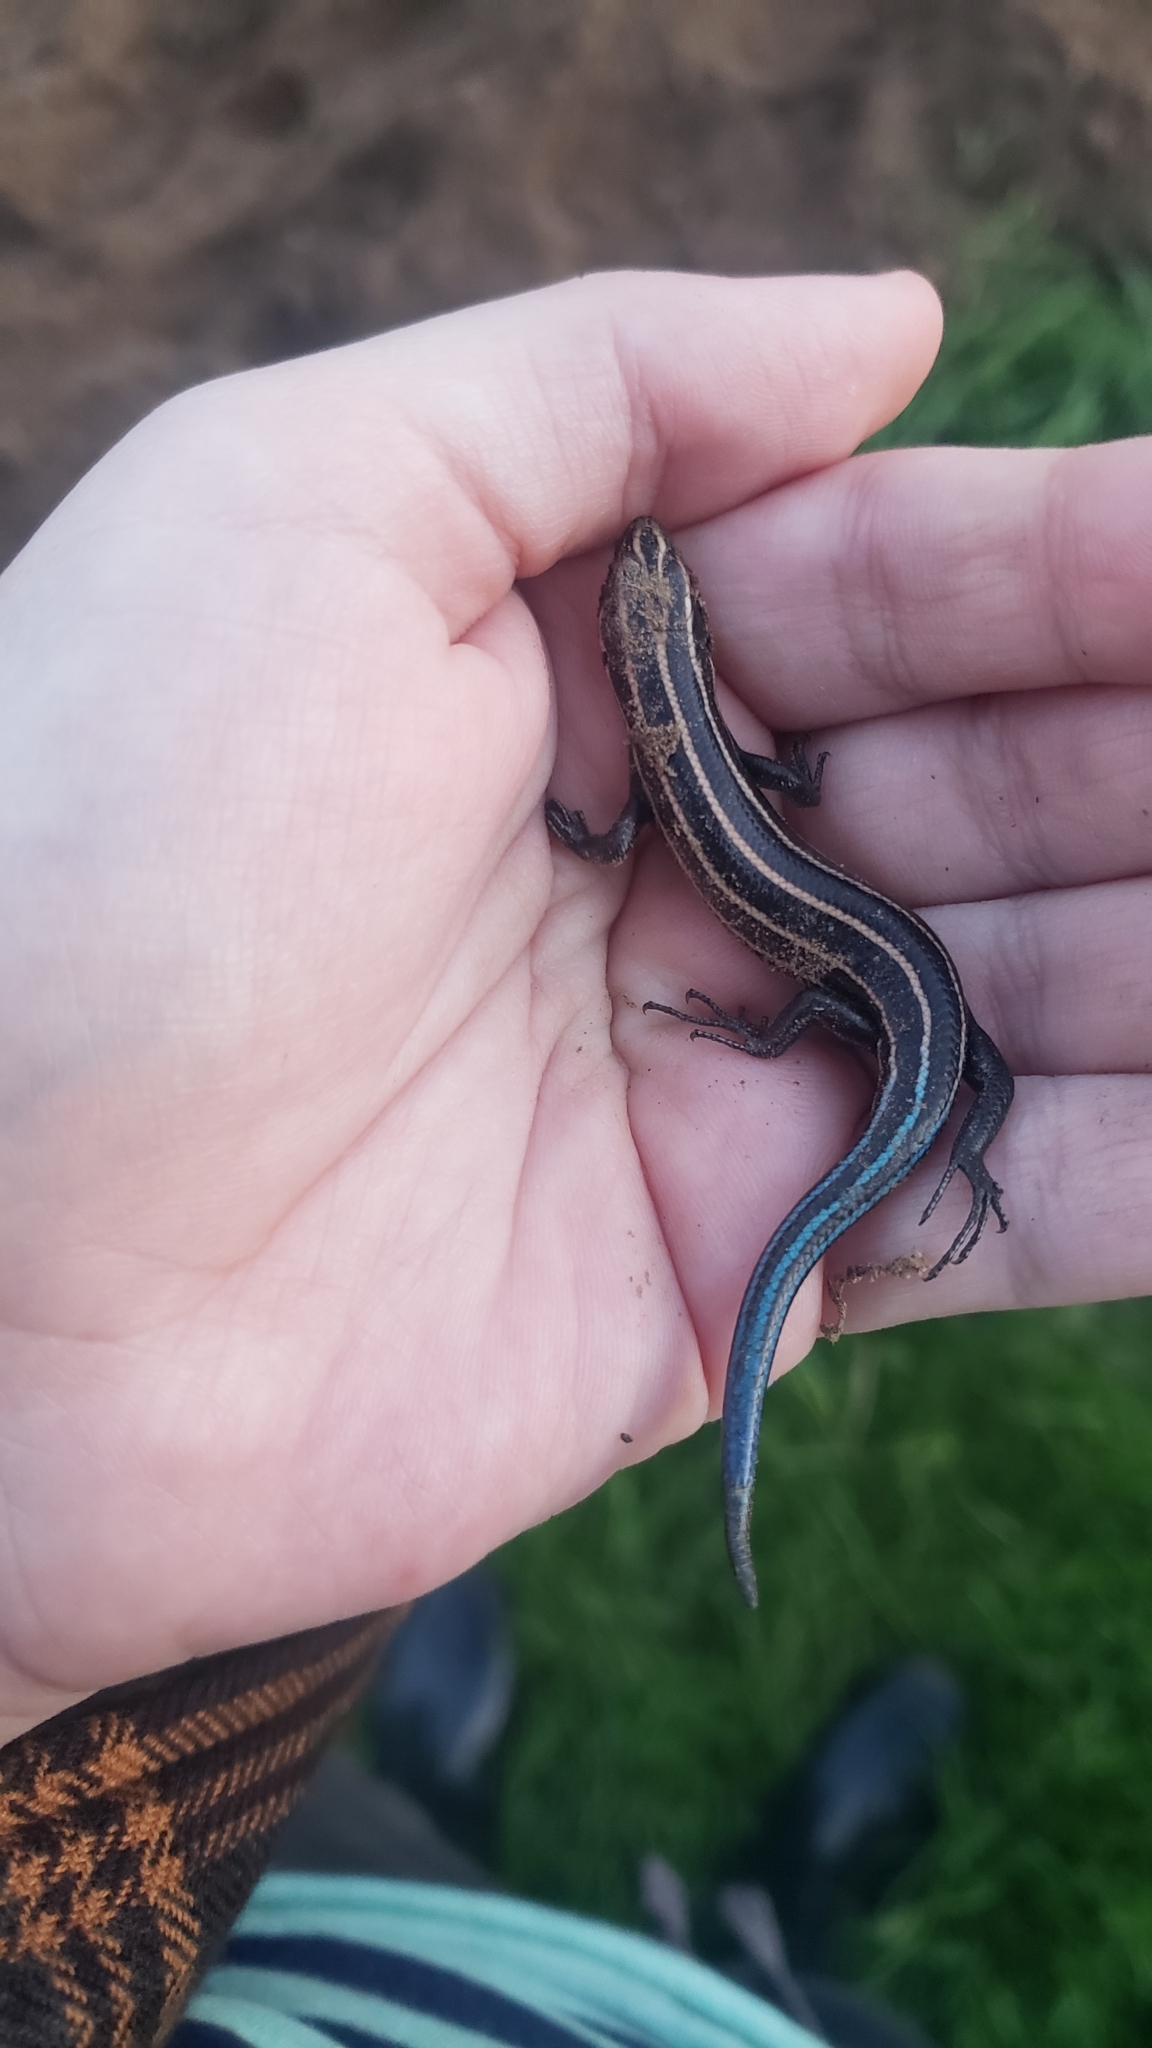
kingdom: Animalia
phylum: Chordata
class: Squamata
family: Scincidae
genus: Plestiodon
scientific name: Plestiodon fasciatus
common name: Five-lined skink
